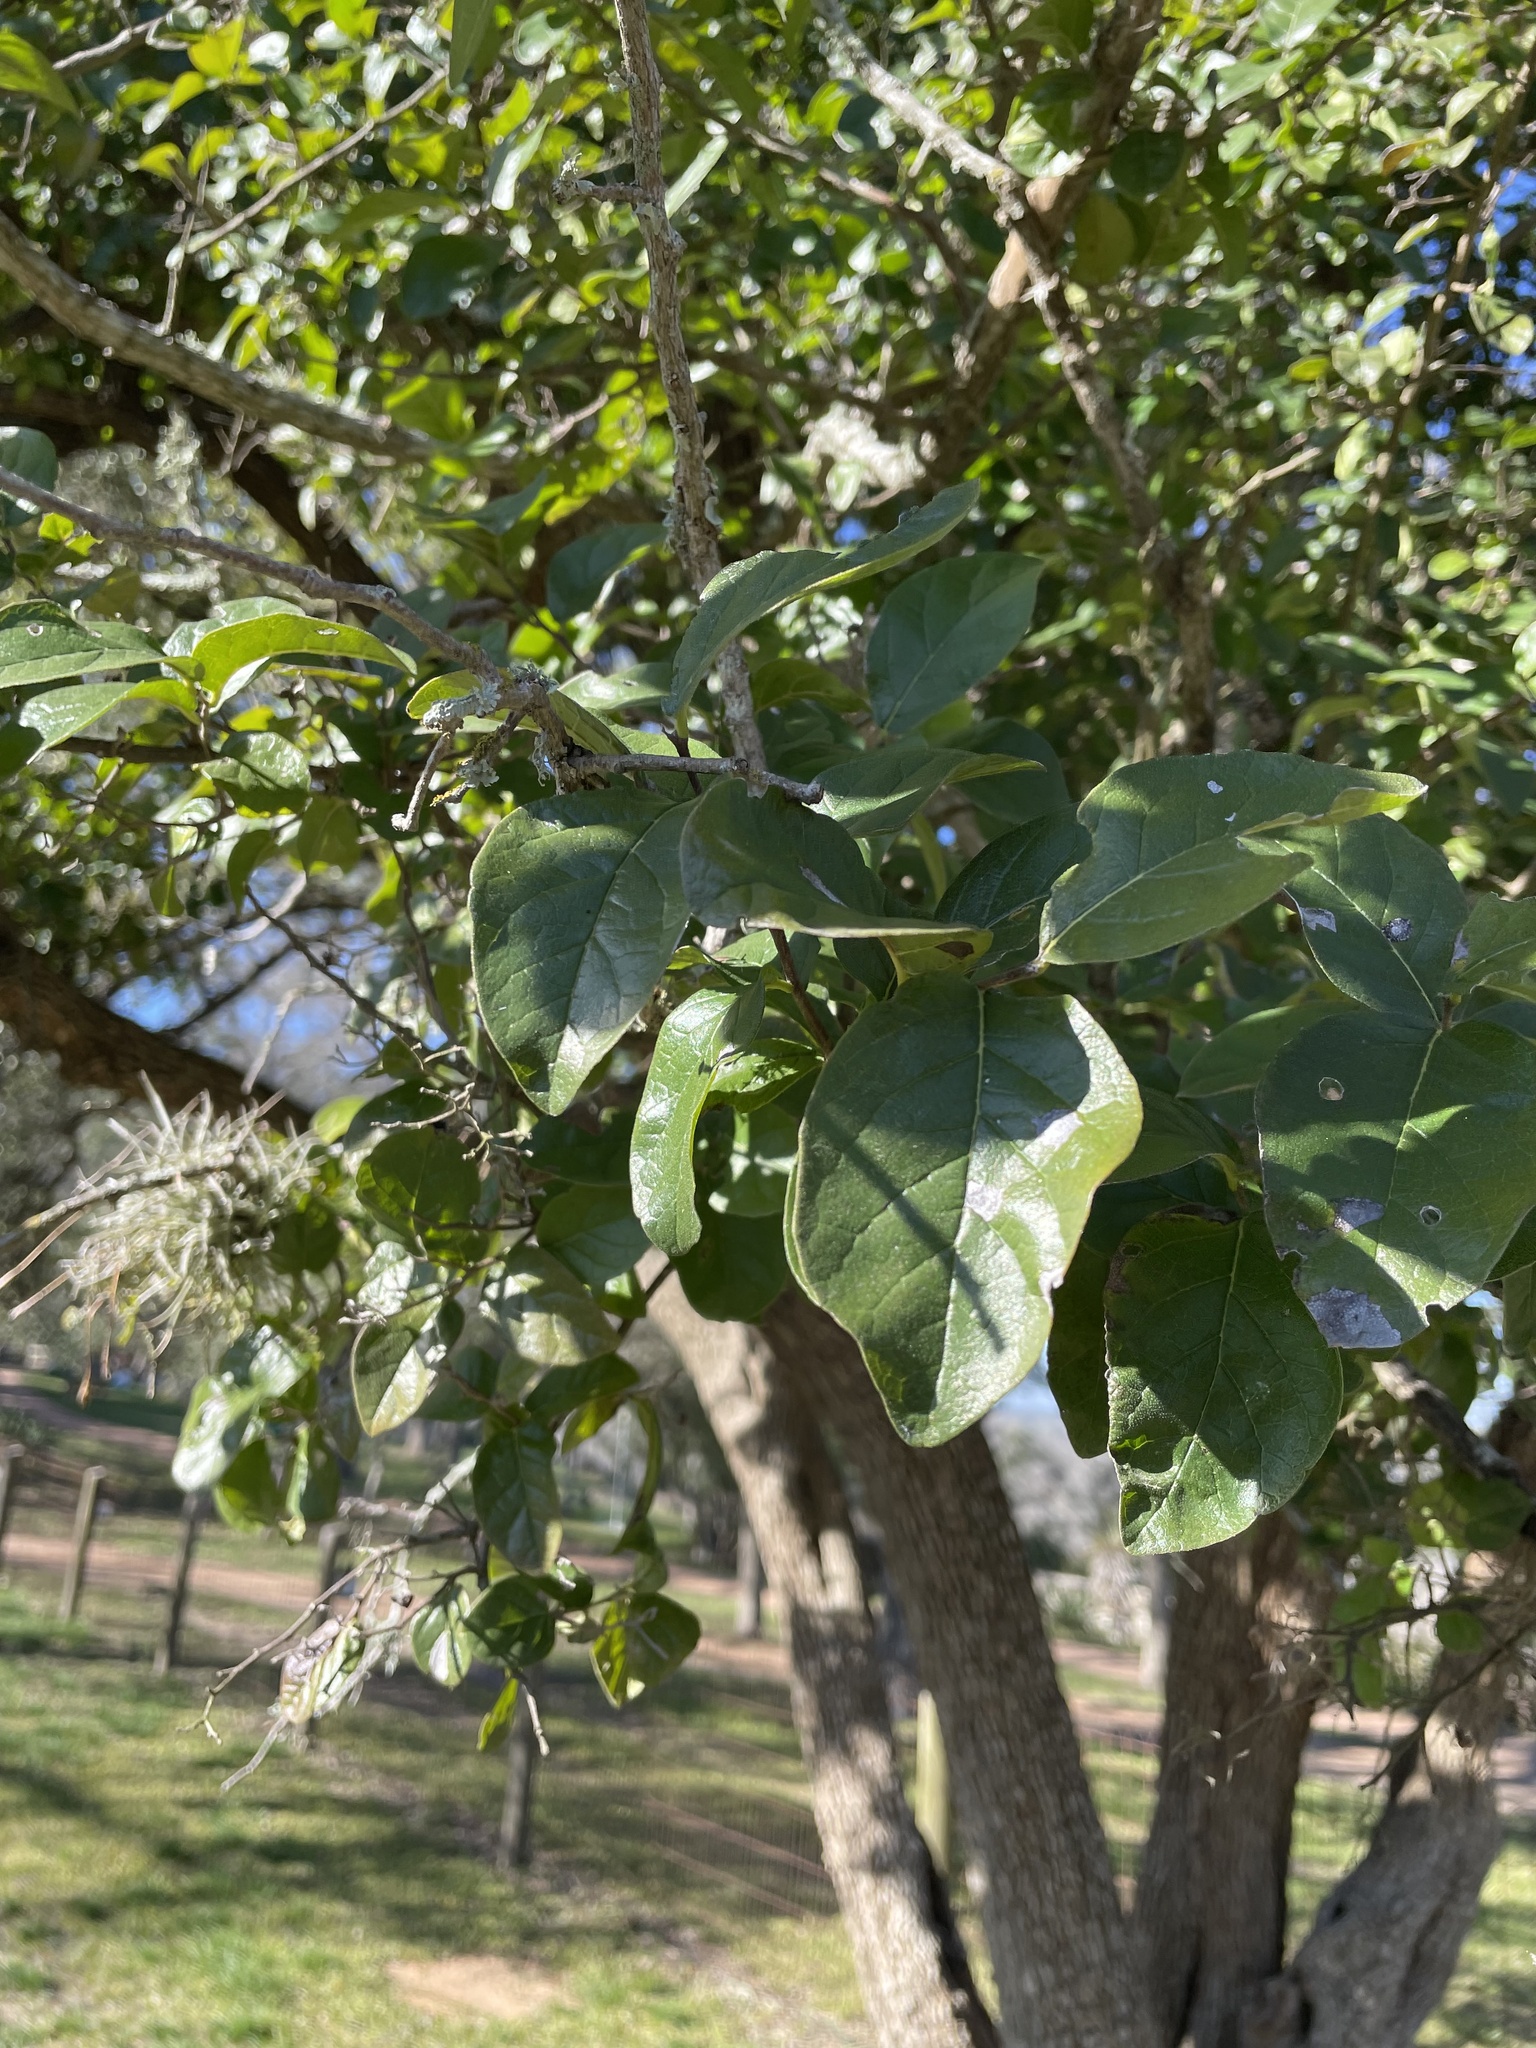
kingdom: Plantae
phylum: Tracheophyta
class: Magnoliopsida
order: Boraginales
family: Ehretiaceae
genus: Ehretia
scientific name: Ehretia anacua
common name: Sugarberry
